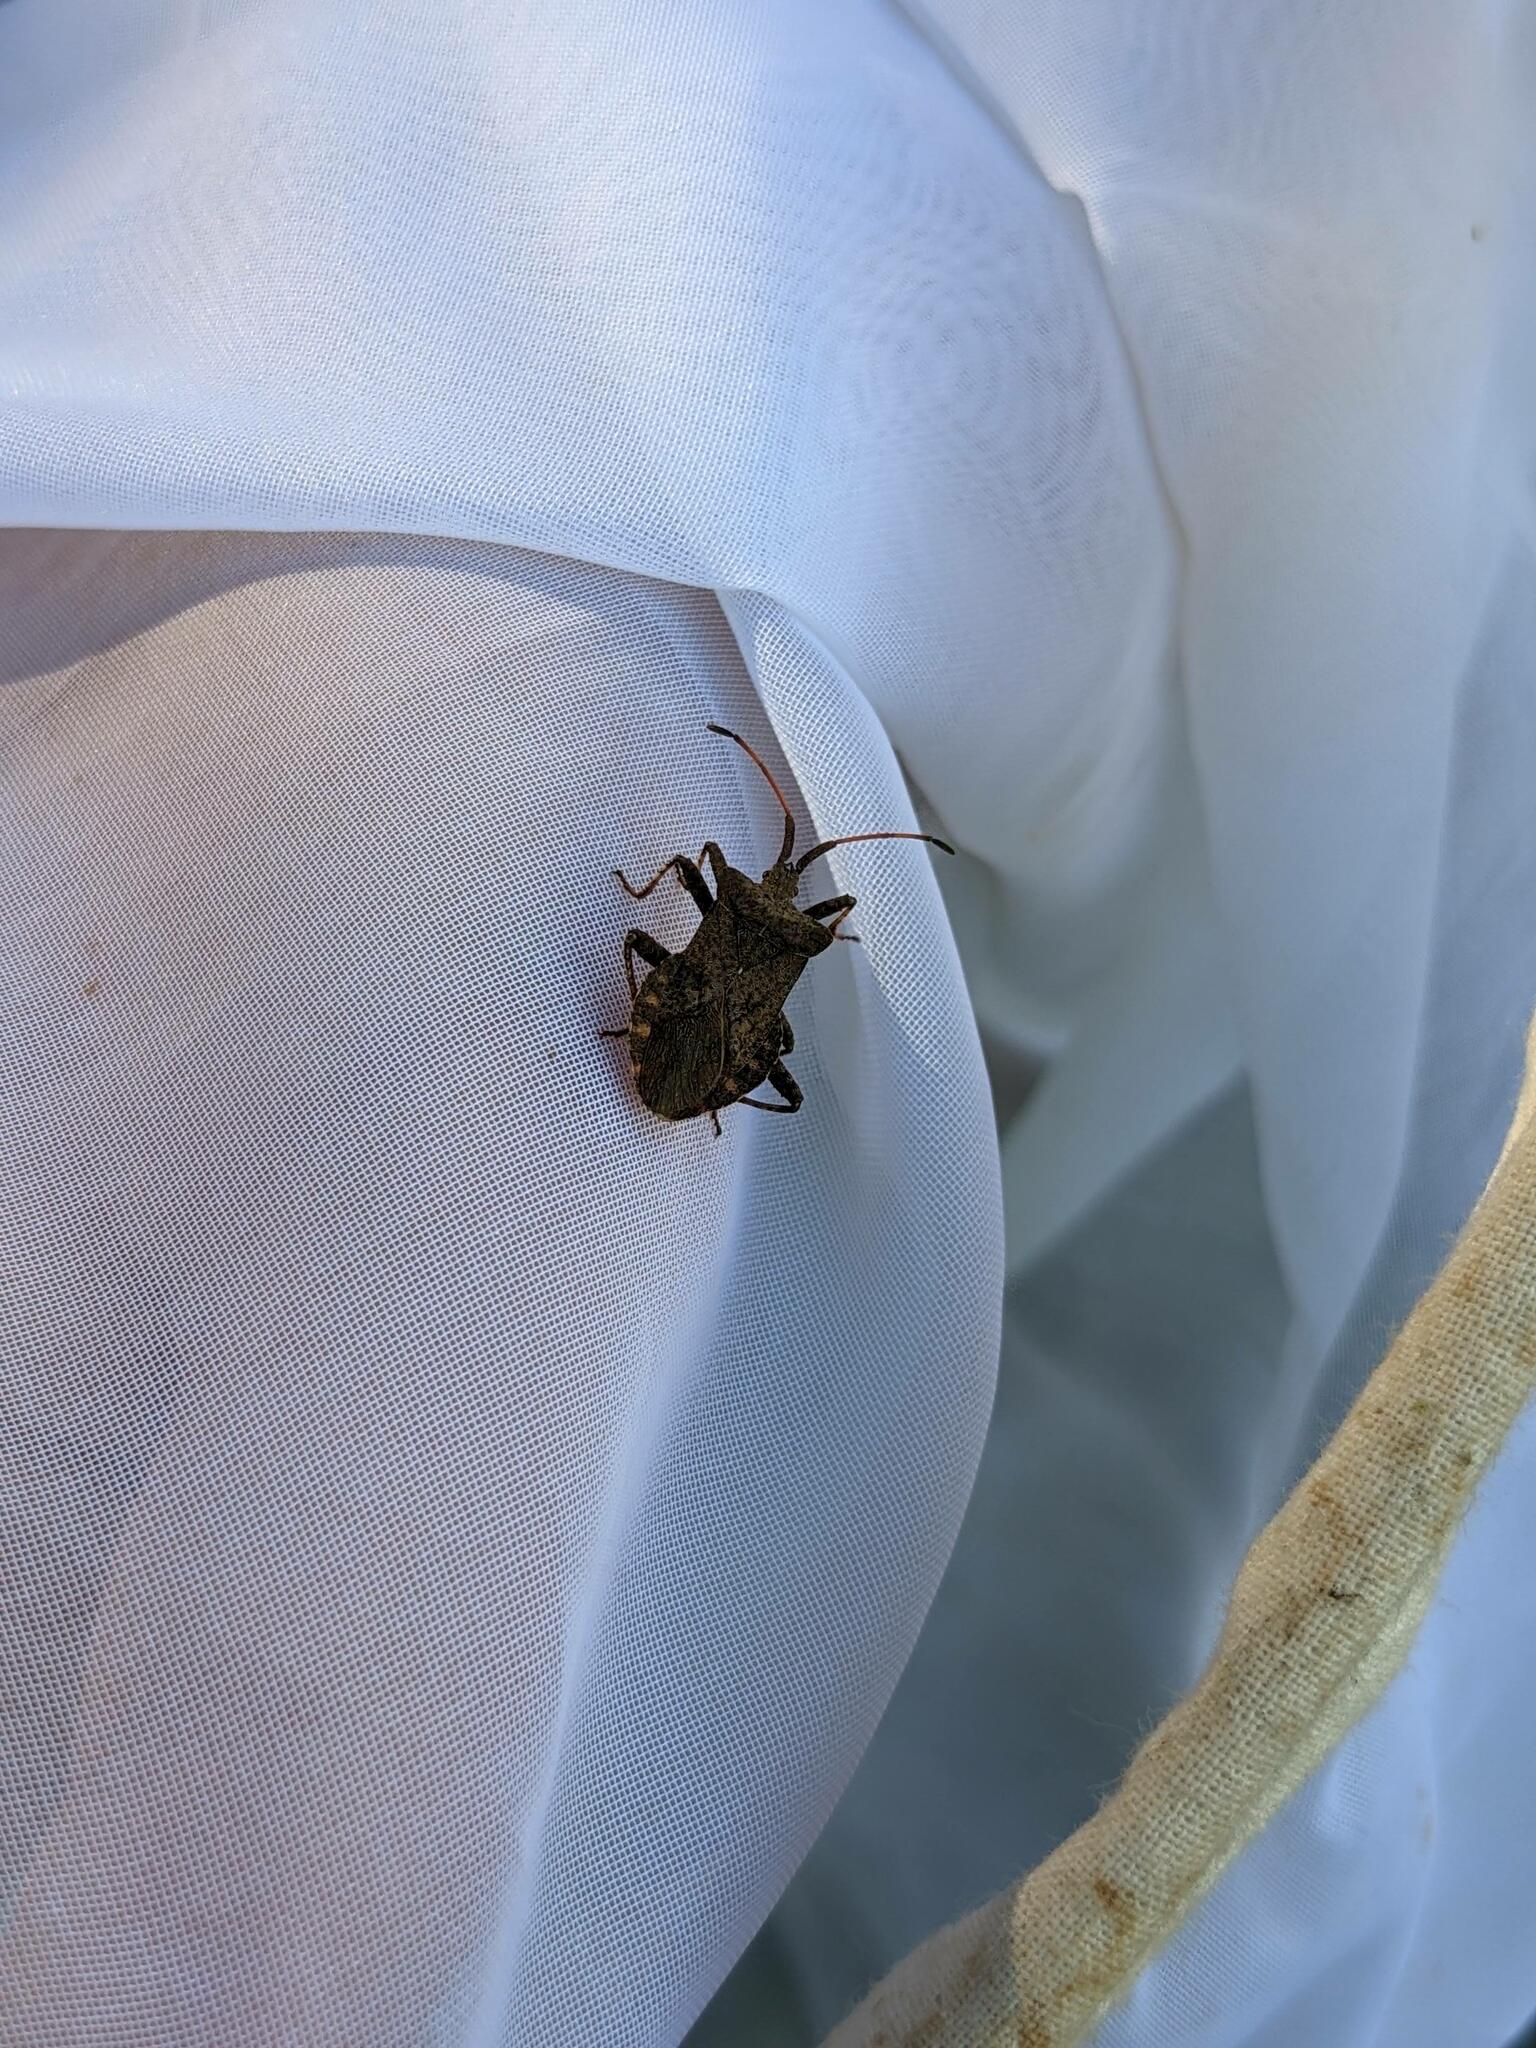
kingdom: Animalia
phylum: Arthropoda
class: Insecta
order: Hemiptera
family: Coreidae
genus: Coreus
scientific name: Coreus marginatus
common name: Dock bug
